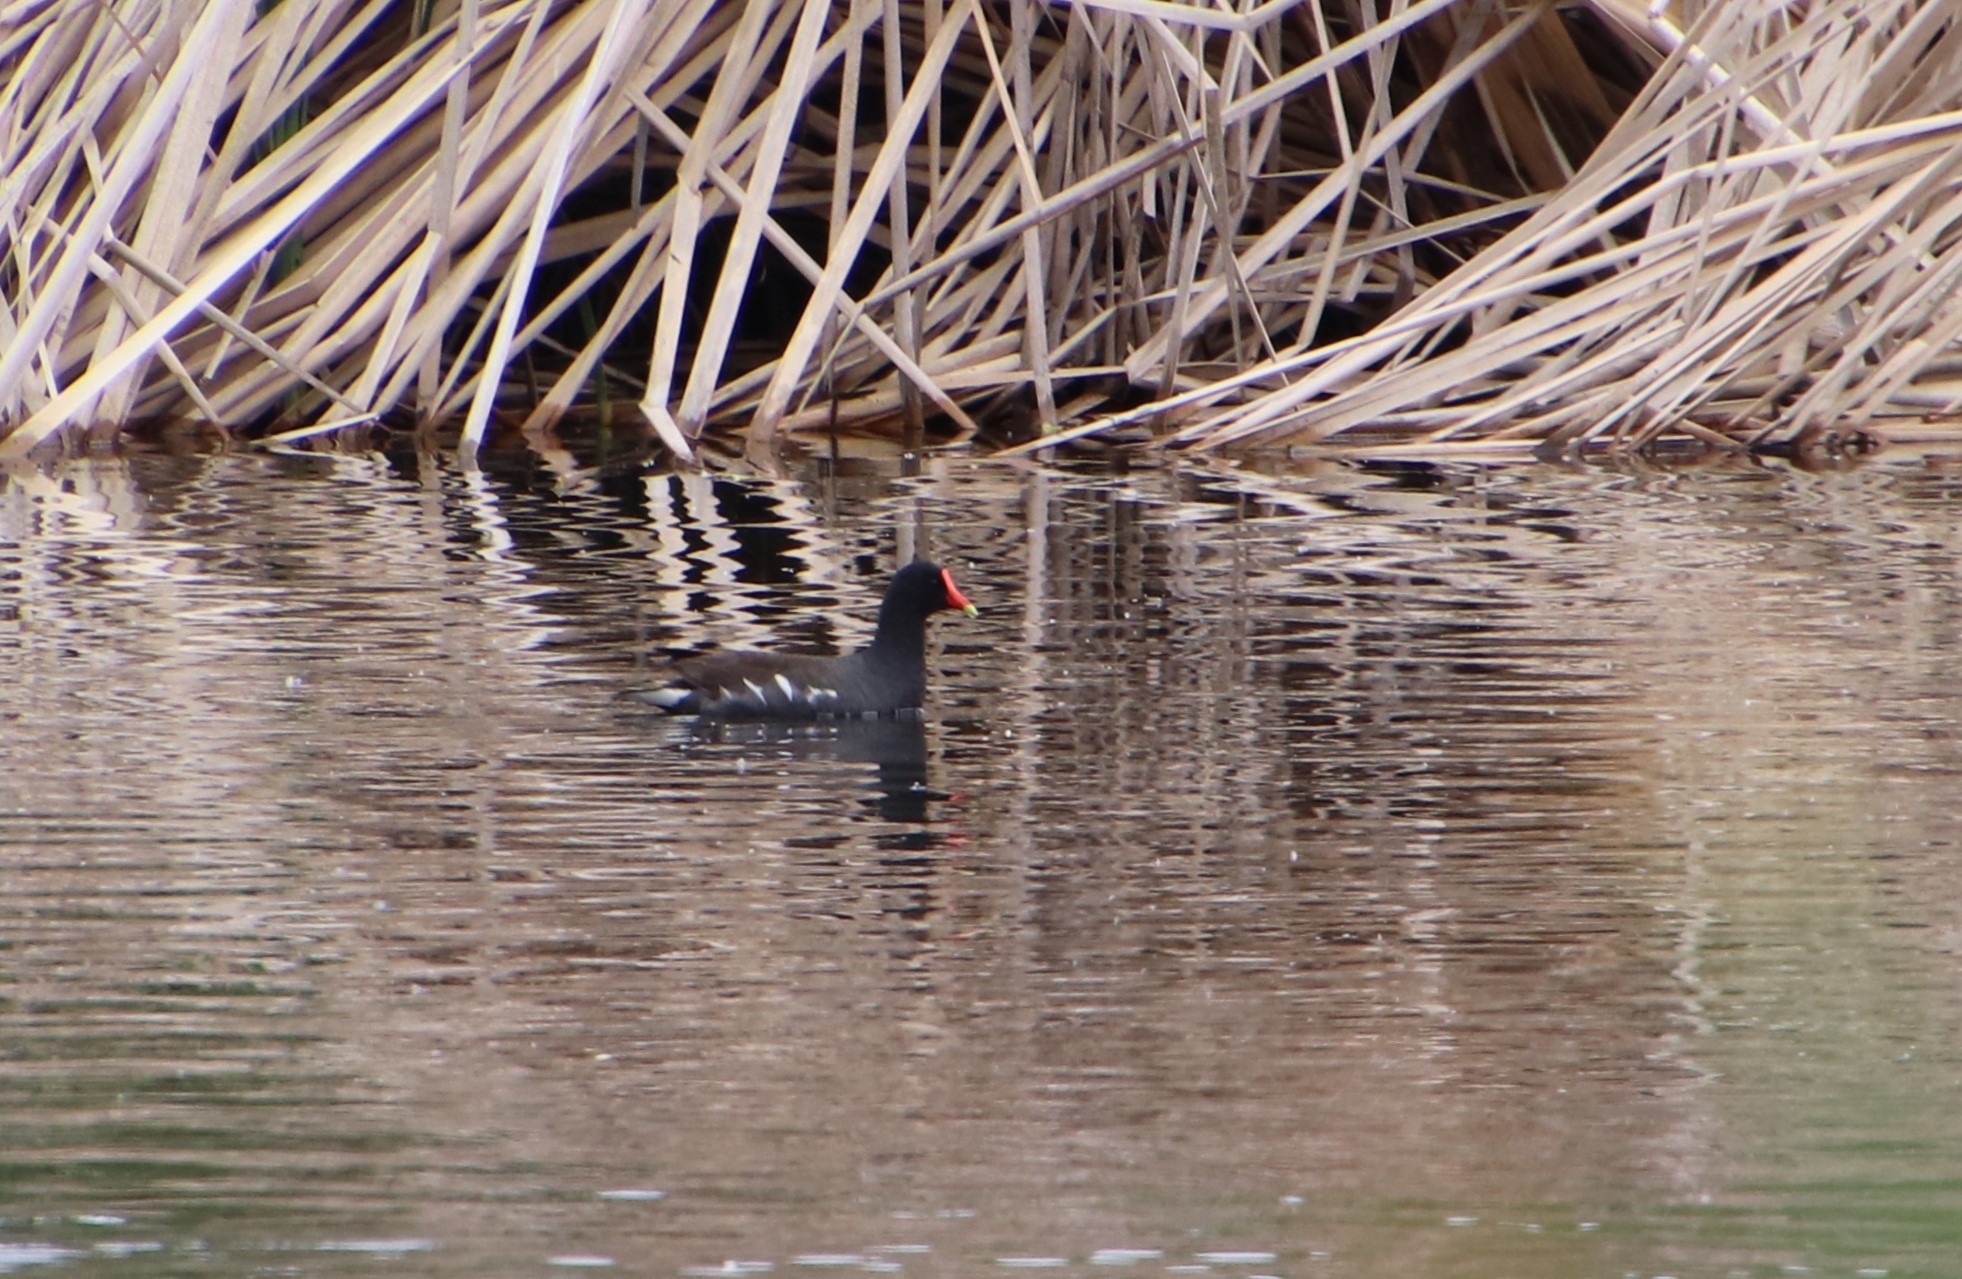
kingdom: Animalia
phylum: Chordata
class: Aves
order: Gruiformes
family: Rallidae
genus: Gallinula
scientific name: Gallinula chloropus
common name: Common moorhen
